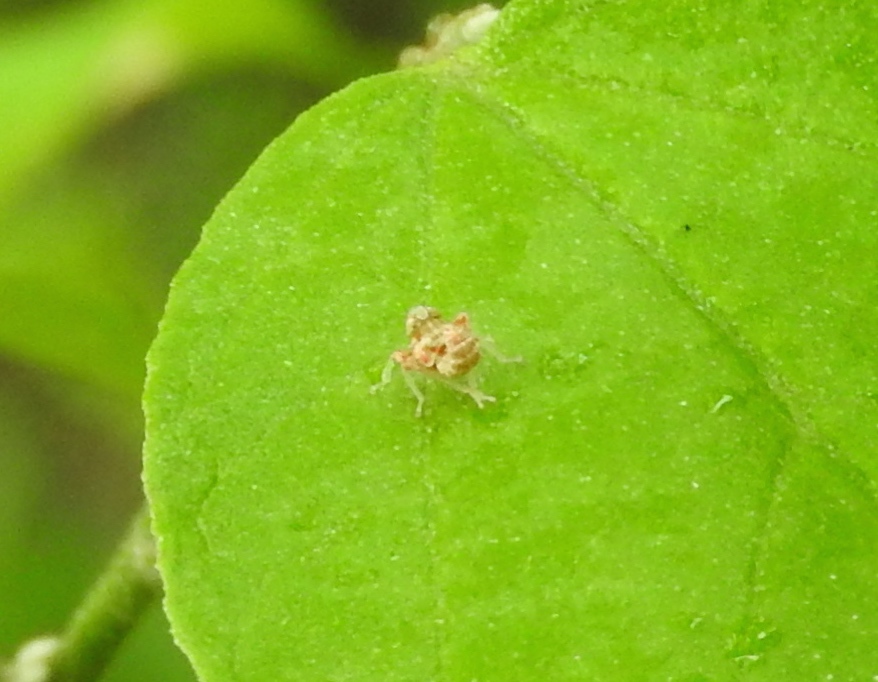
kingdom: Animalia
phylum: Arthropoda
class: Insecta
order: Hemiptera
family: Cicadellidae
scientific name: Cicadellidae
